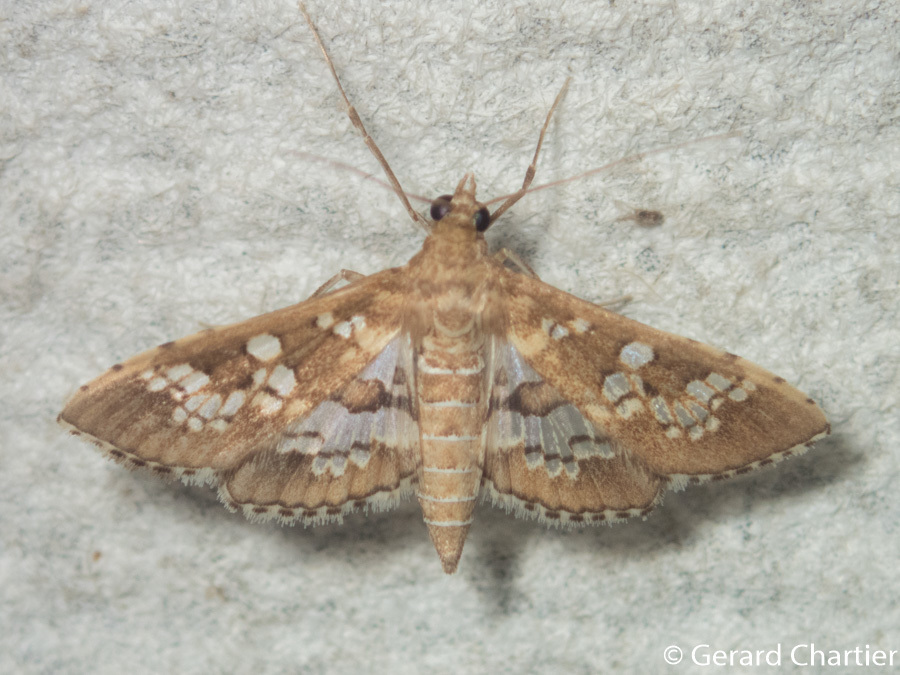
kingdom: Animalia
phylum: Arthropoda
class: Insecta
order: Lepidoptera
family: Crambidae
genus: Sameodes
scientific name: Sameodes cancellalis
